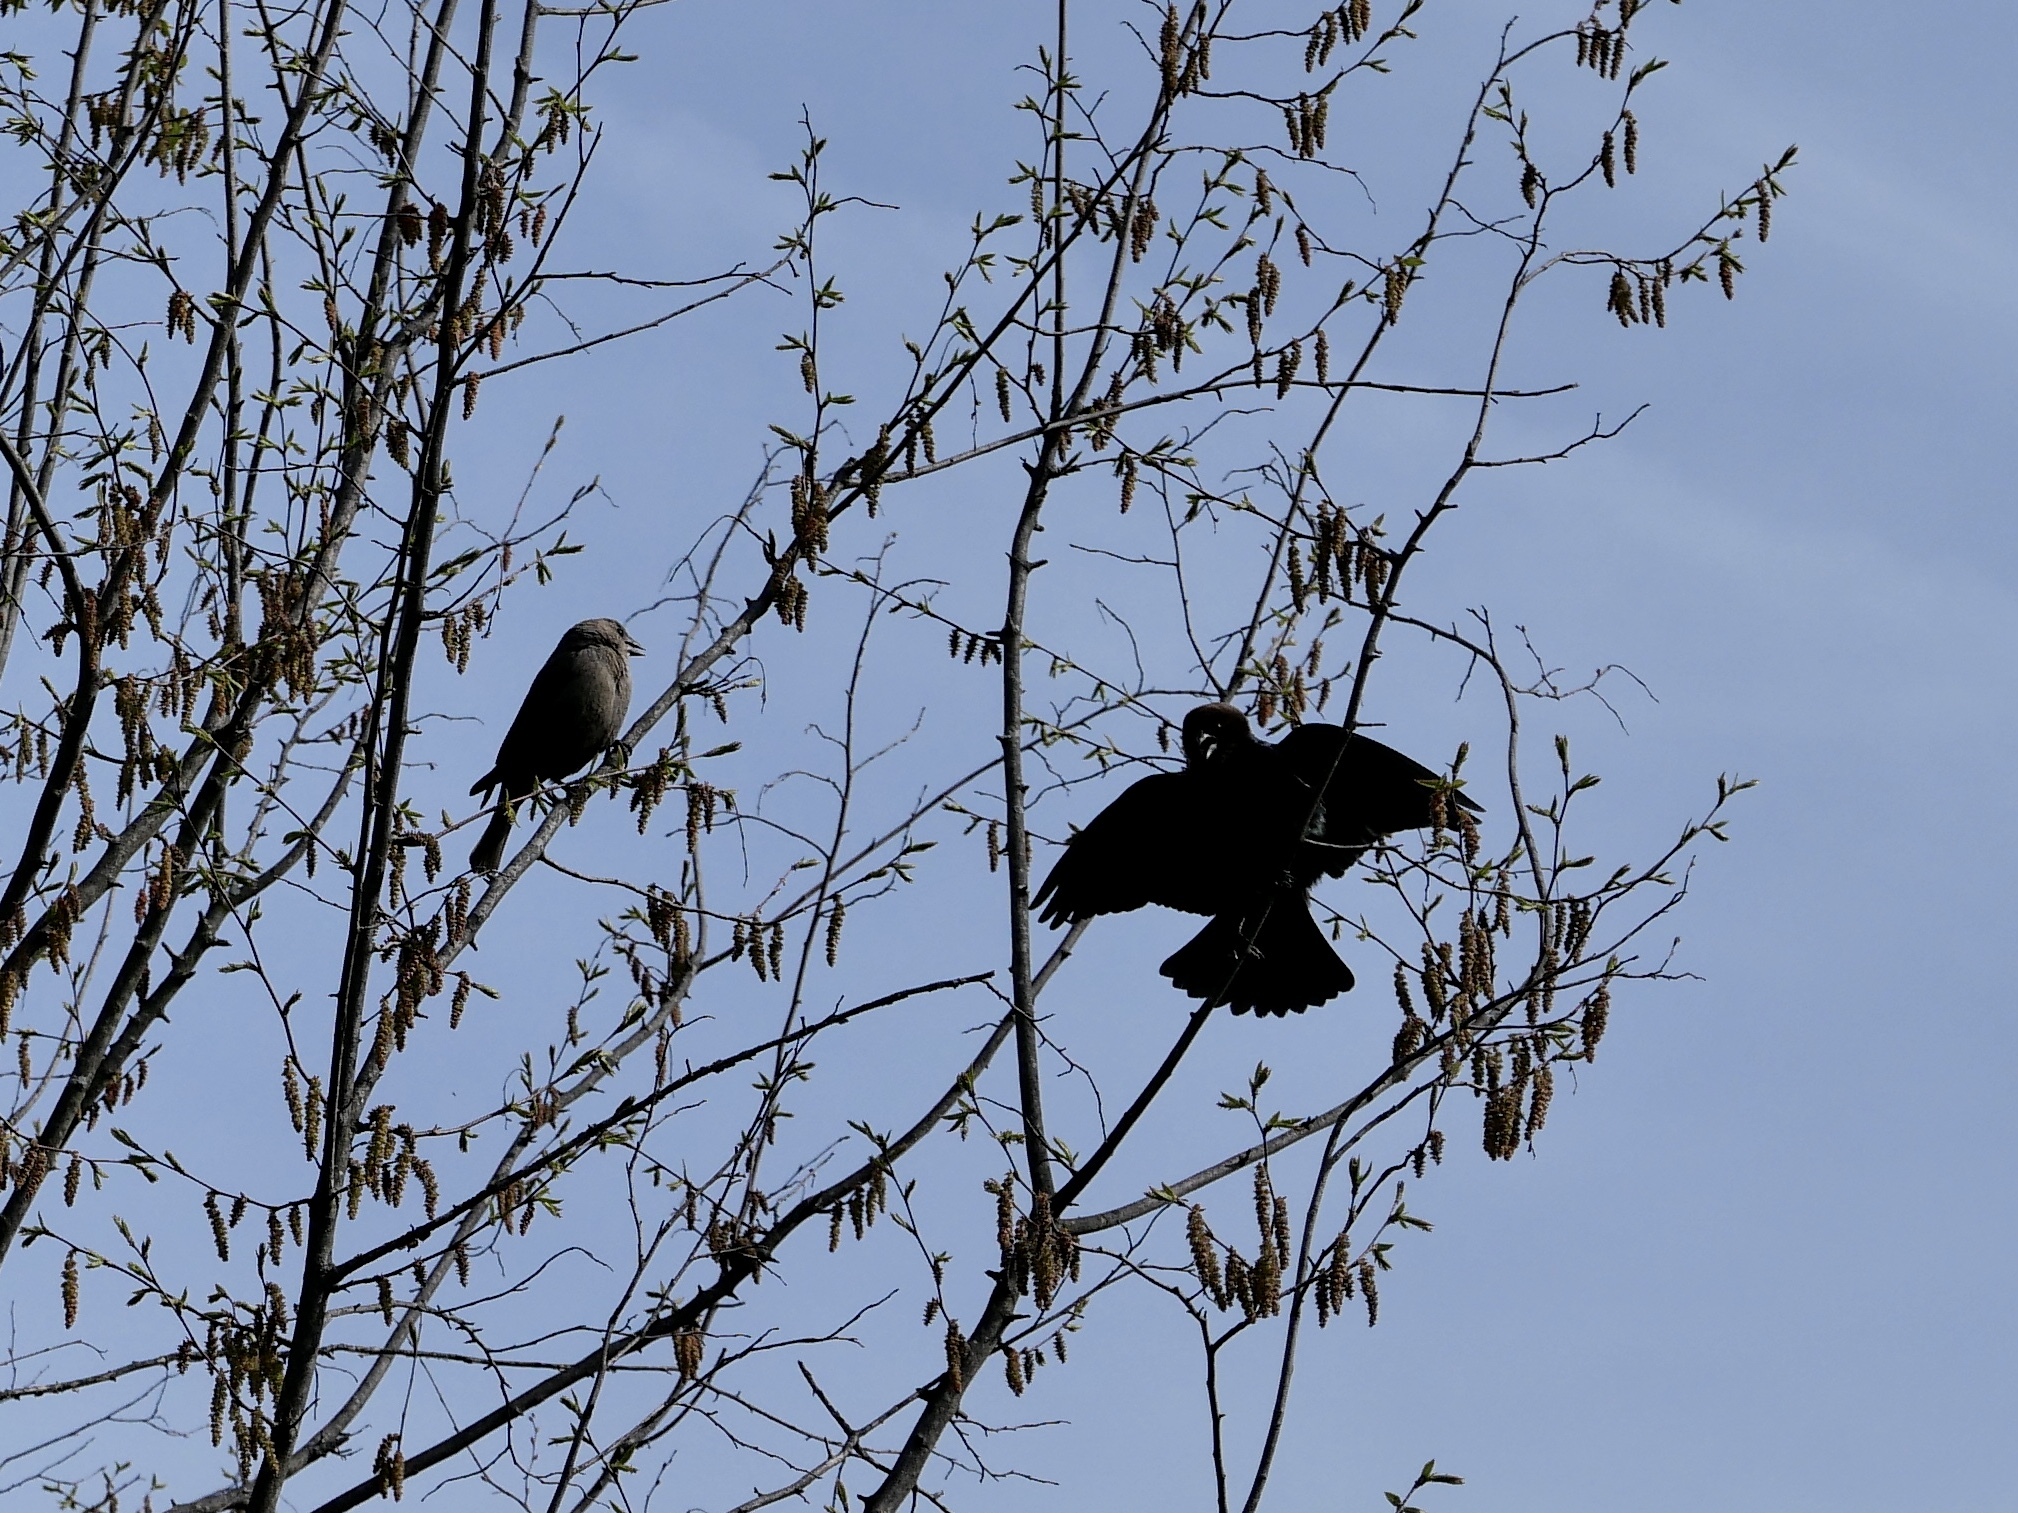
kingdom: Animalia
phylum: Chordata
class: Aves
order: Passeriformes
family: Icteridae
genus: Molothrus
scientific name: Molothrus ater
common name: Brown-headed cowbird
